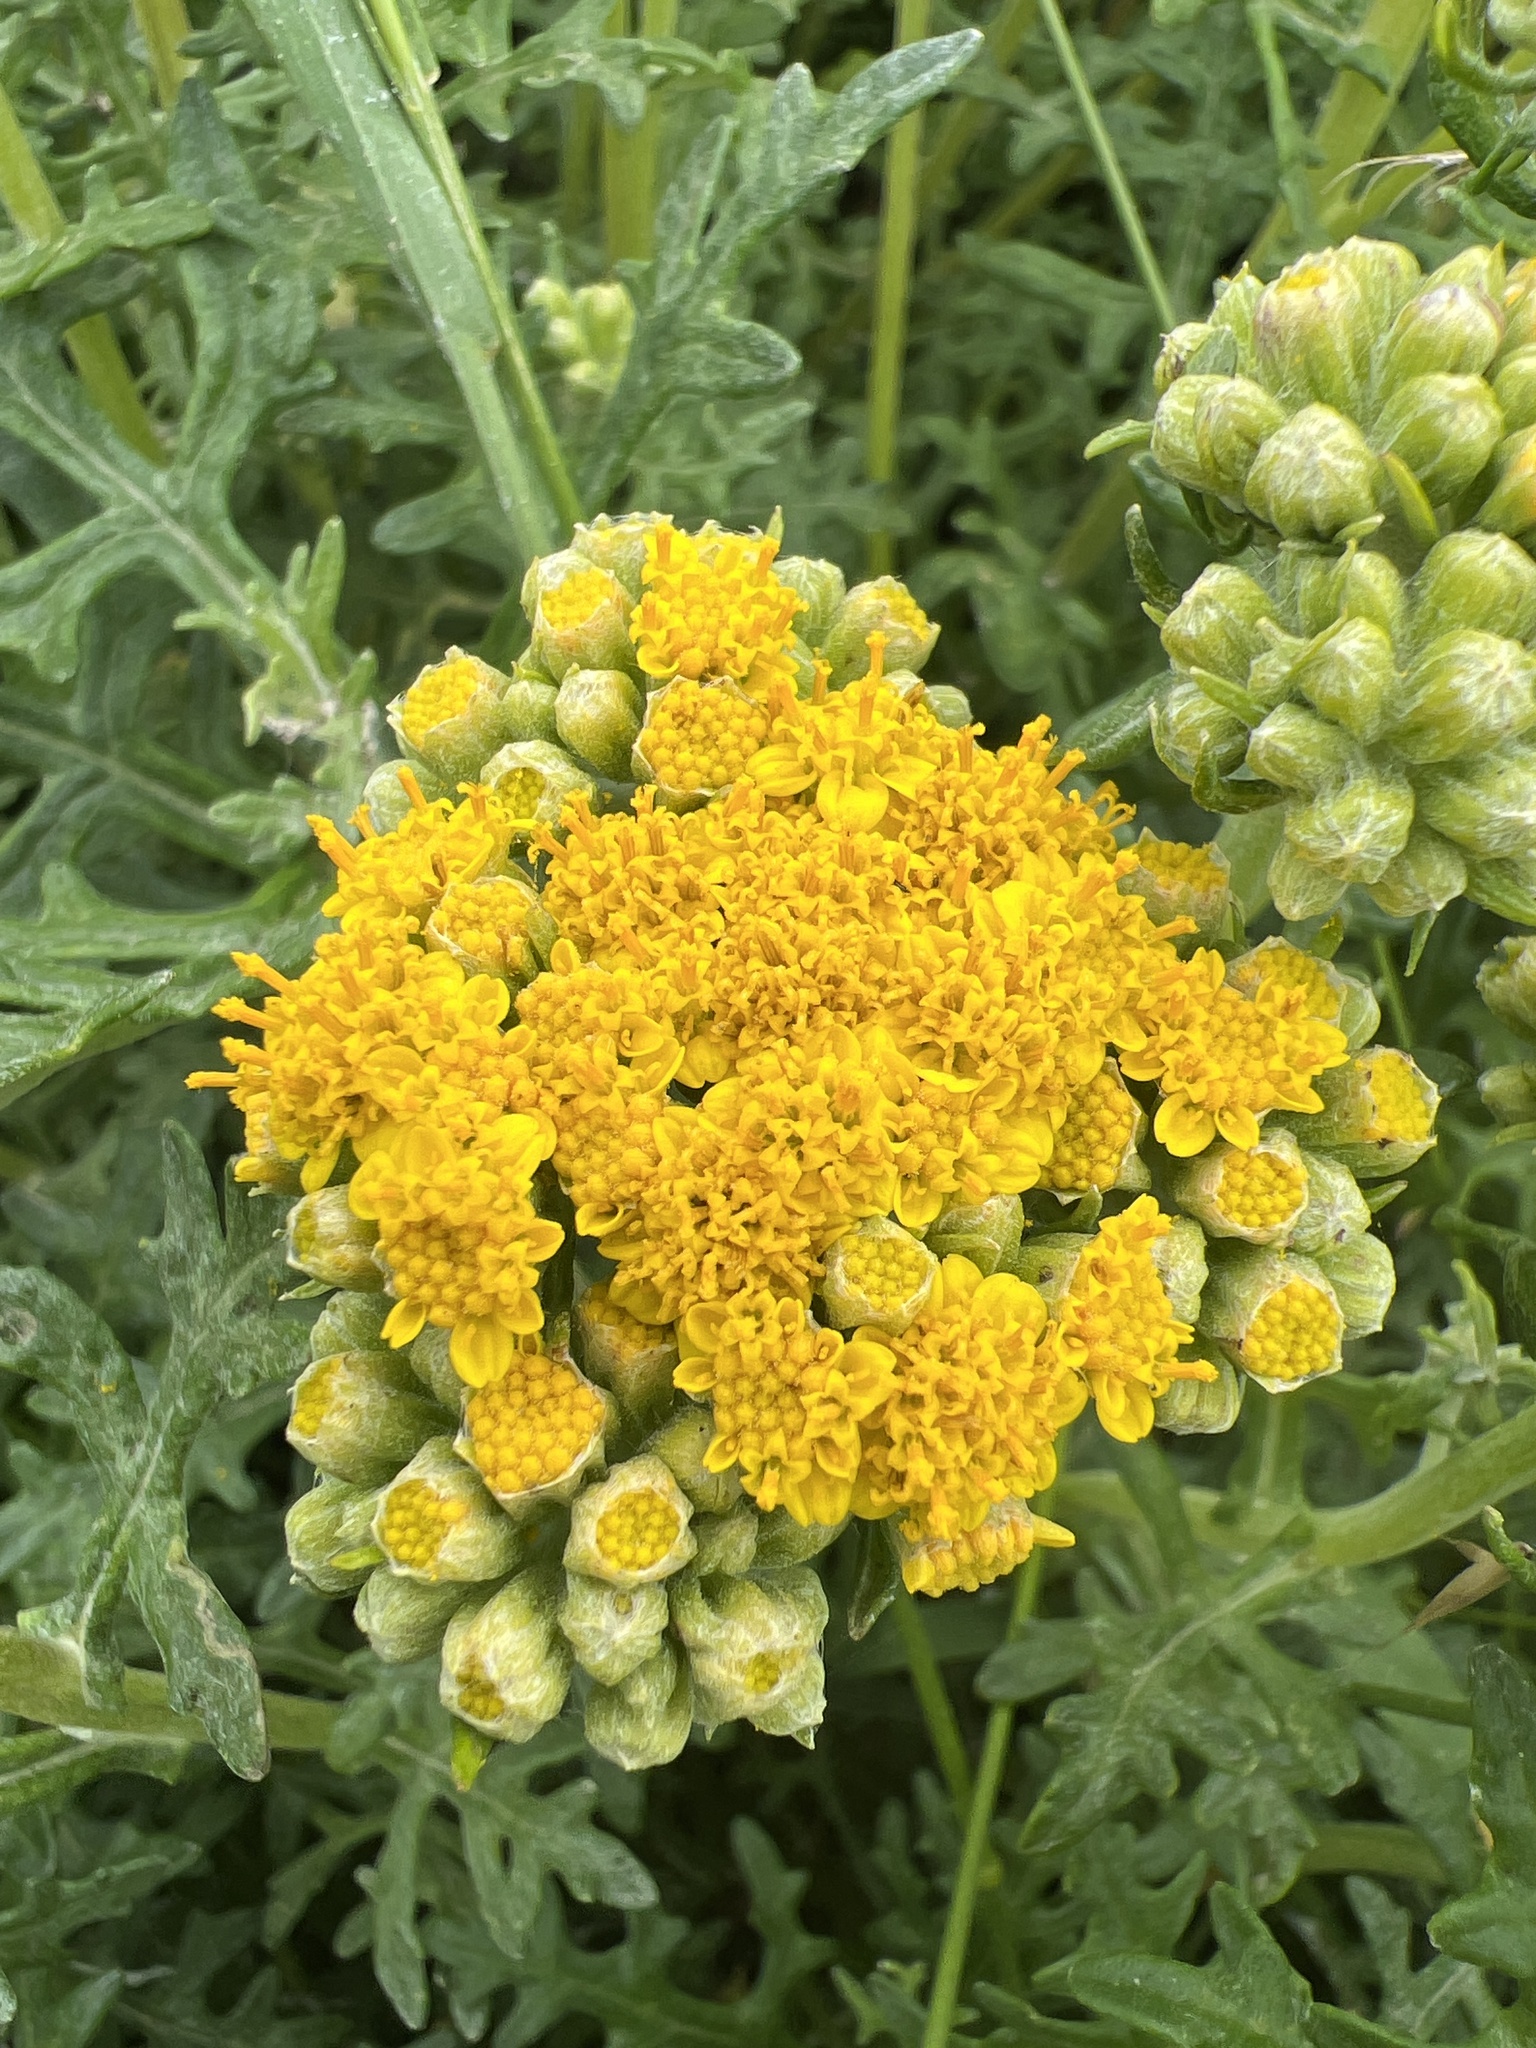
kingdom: Plantae
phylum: Tracheophyta
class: Magnoliopsida
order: Asterales
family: Asteraceae
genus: Eriophyllum
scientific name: Eriophyllum staechadifolium
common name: Lizardtail
